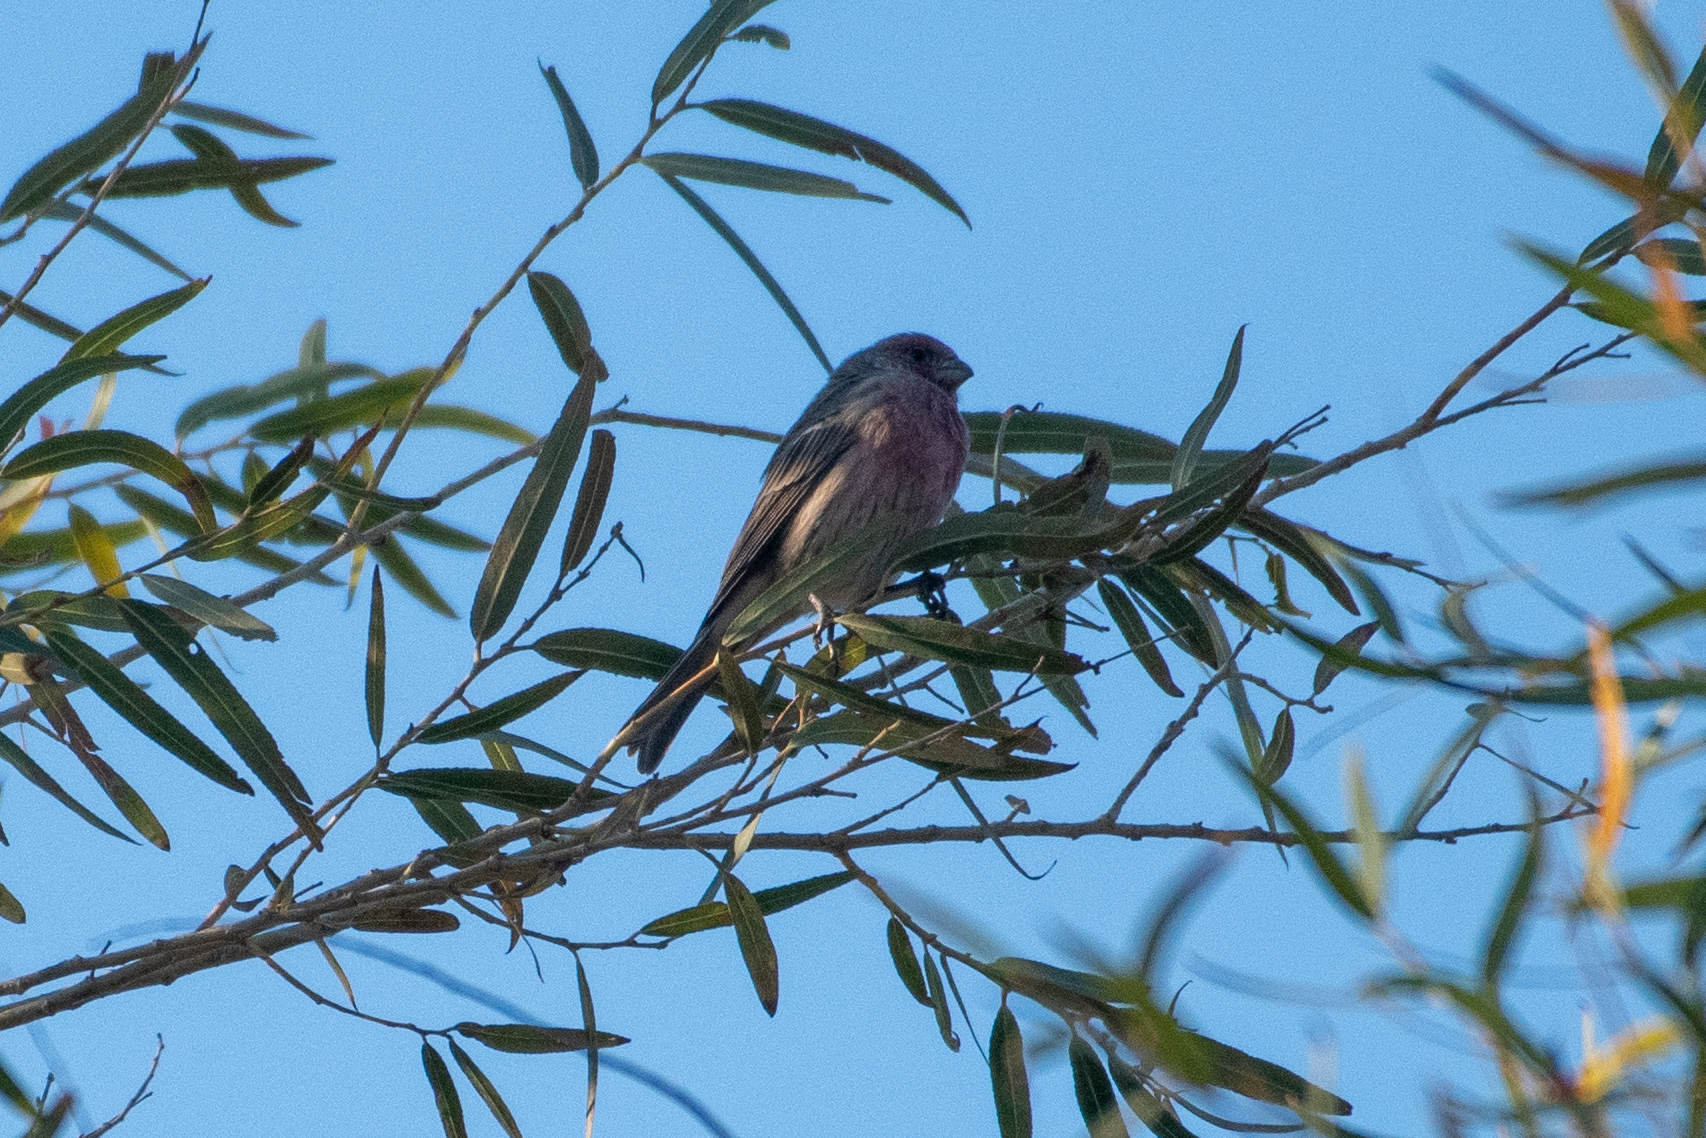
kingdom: Animalia
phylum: Chordata
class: Aves
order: Passeriformes
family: Fringillidae
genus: Haemorhous
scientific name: Haemorhous mexicanus
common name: House finch
